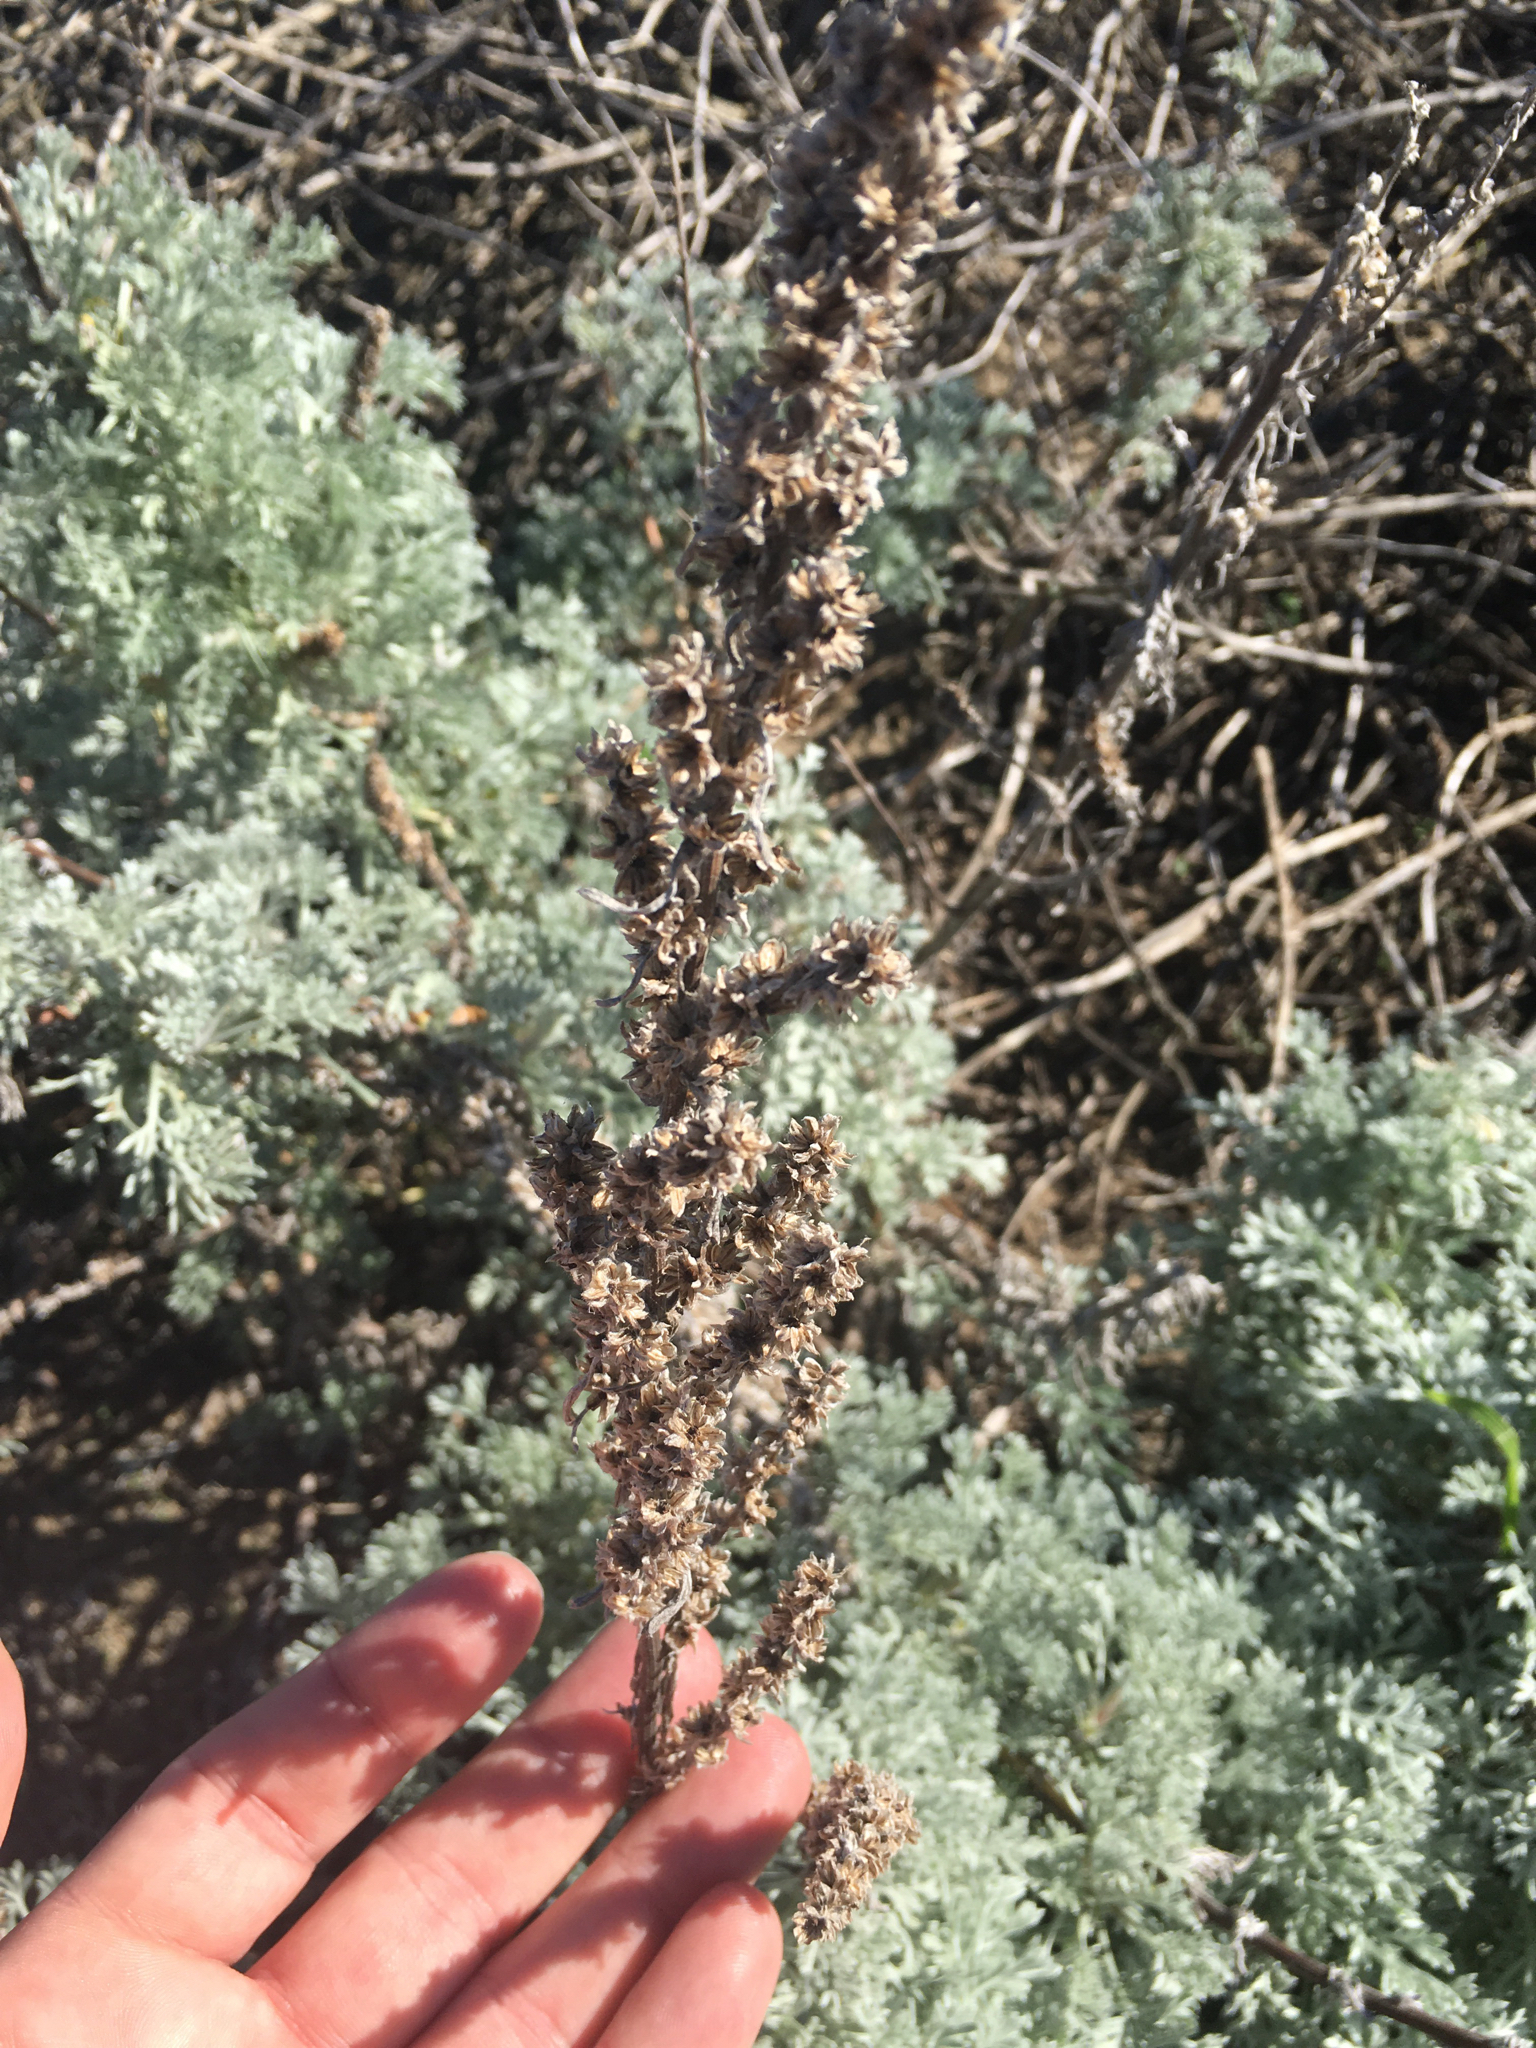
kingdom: Plantae
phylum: Tracheophyta
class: Magnoliopsida
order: Asterales
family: Asteraceae
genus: Artemisia
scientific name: Artemisia pycnocephala
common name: Coastal sagewort
